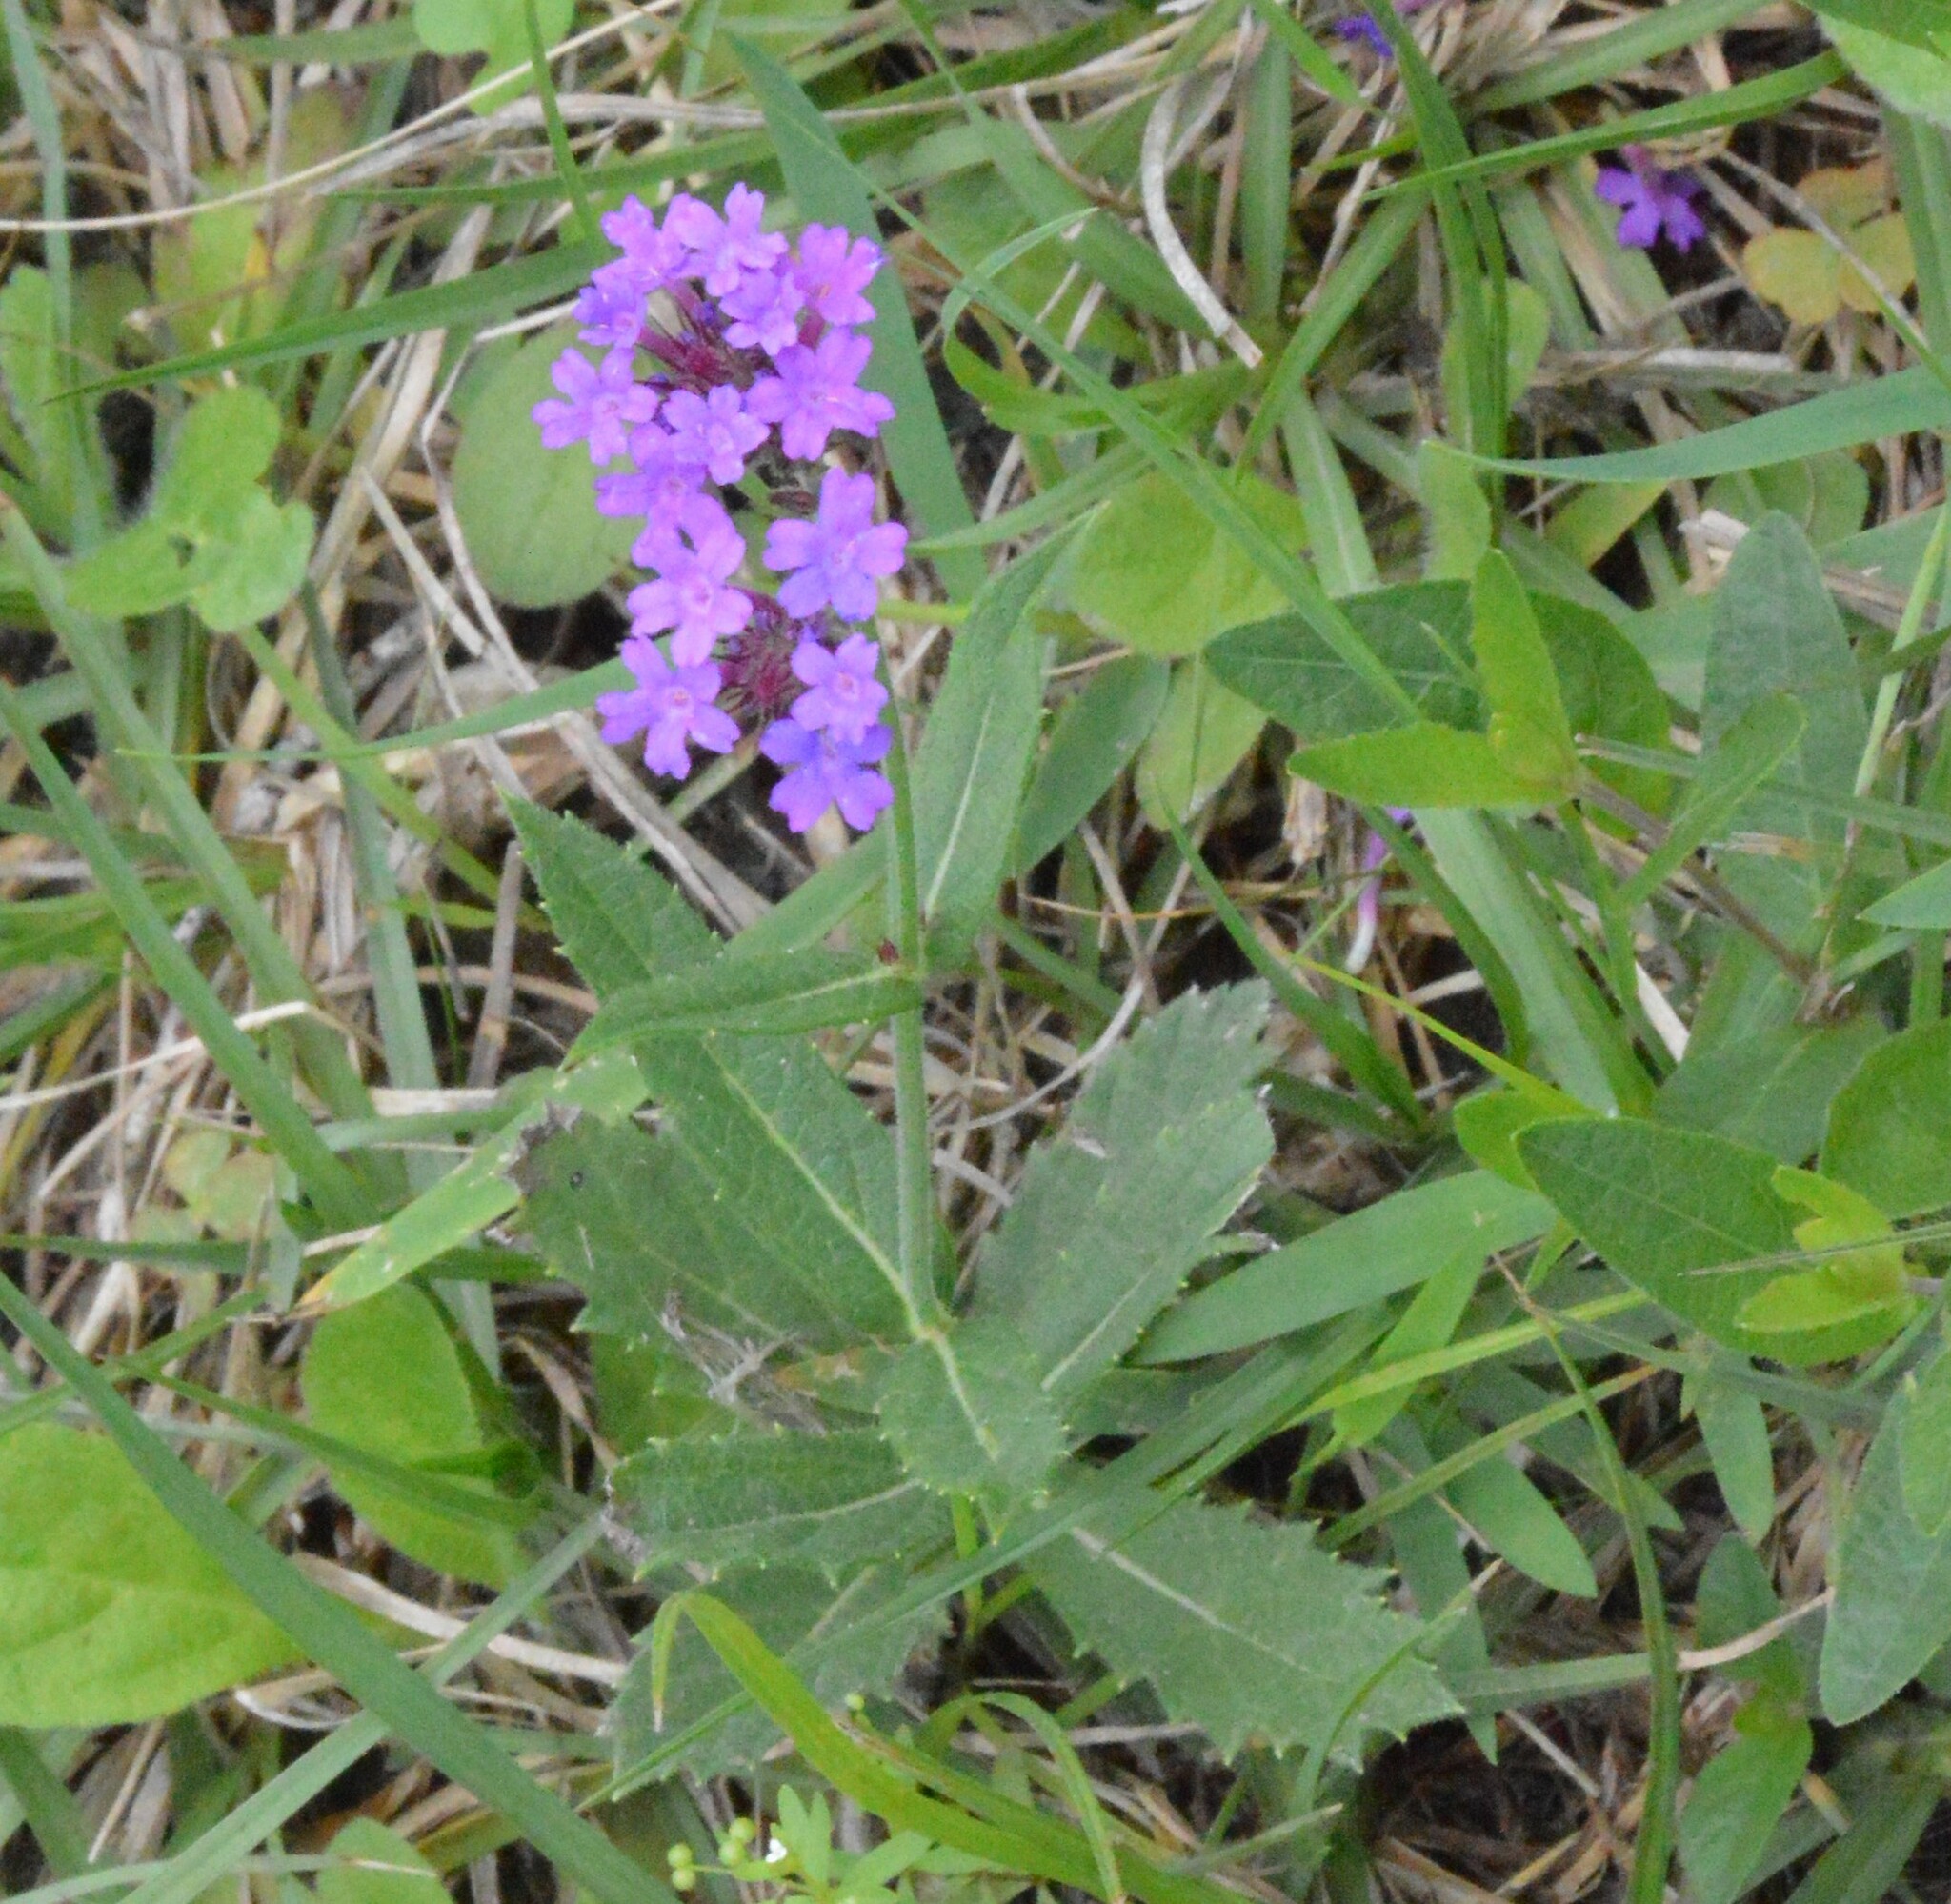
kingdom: Plantae
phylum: Tracheophyta
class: Magnoliopsida
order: Lamiales
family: Verbenaceae
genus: Verbena
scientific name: Verbena rigida
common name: Slender vervain
